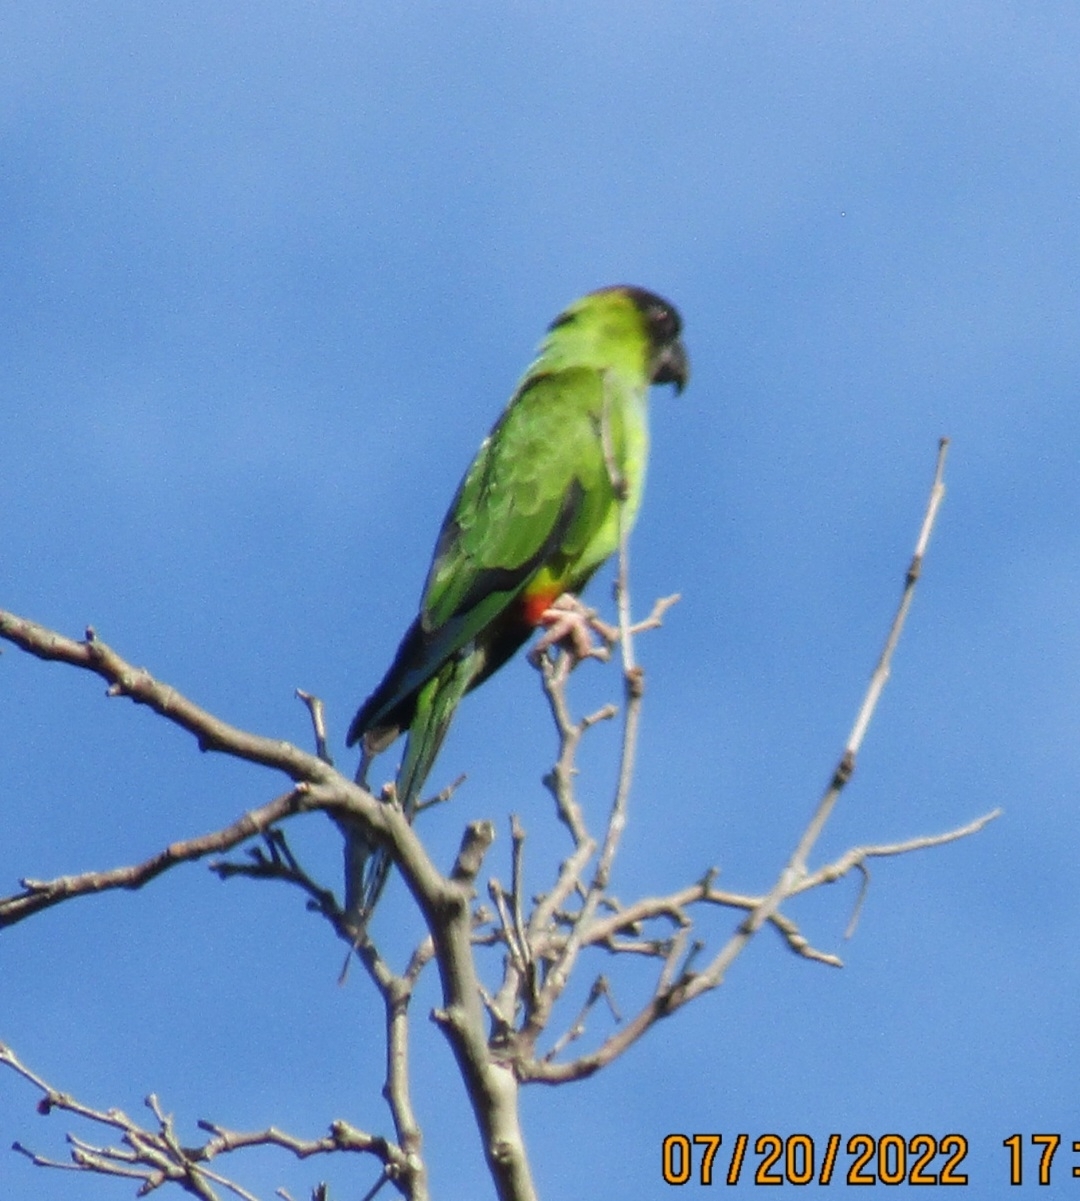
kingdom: Animalia
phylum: Chordata
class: Aves
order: Psittaciformes
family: Psittacidae
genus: Nandayus
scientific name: Nandayus nenday
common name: Nanday parakeet
